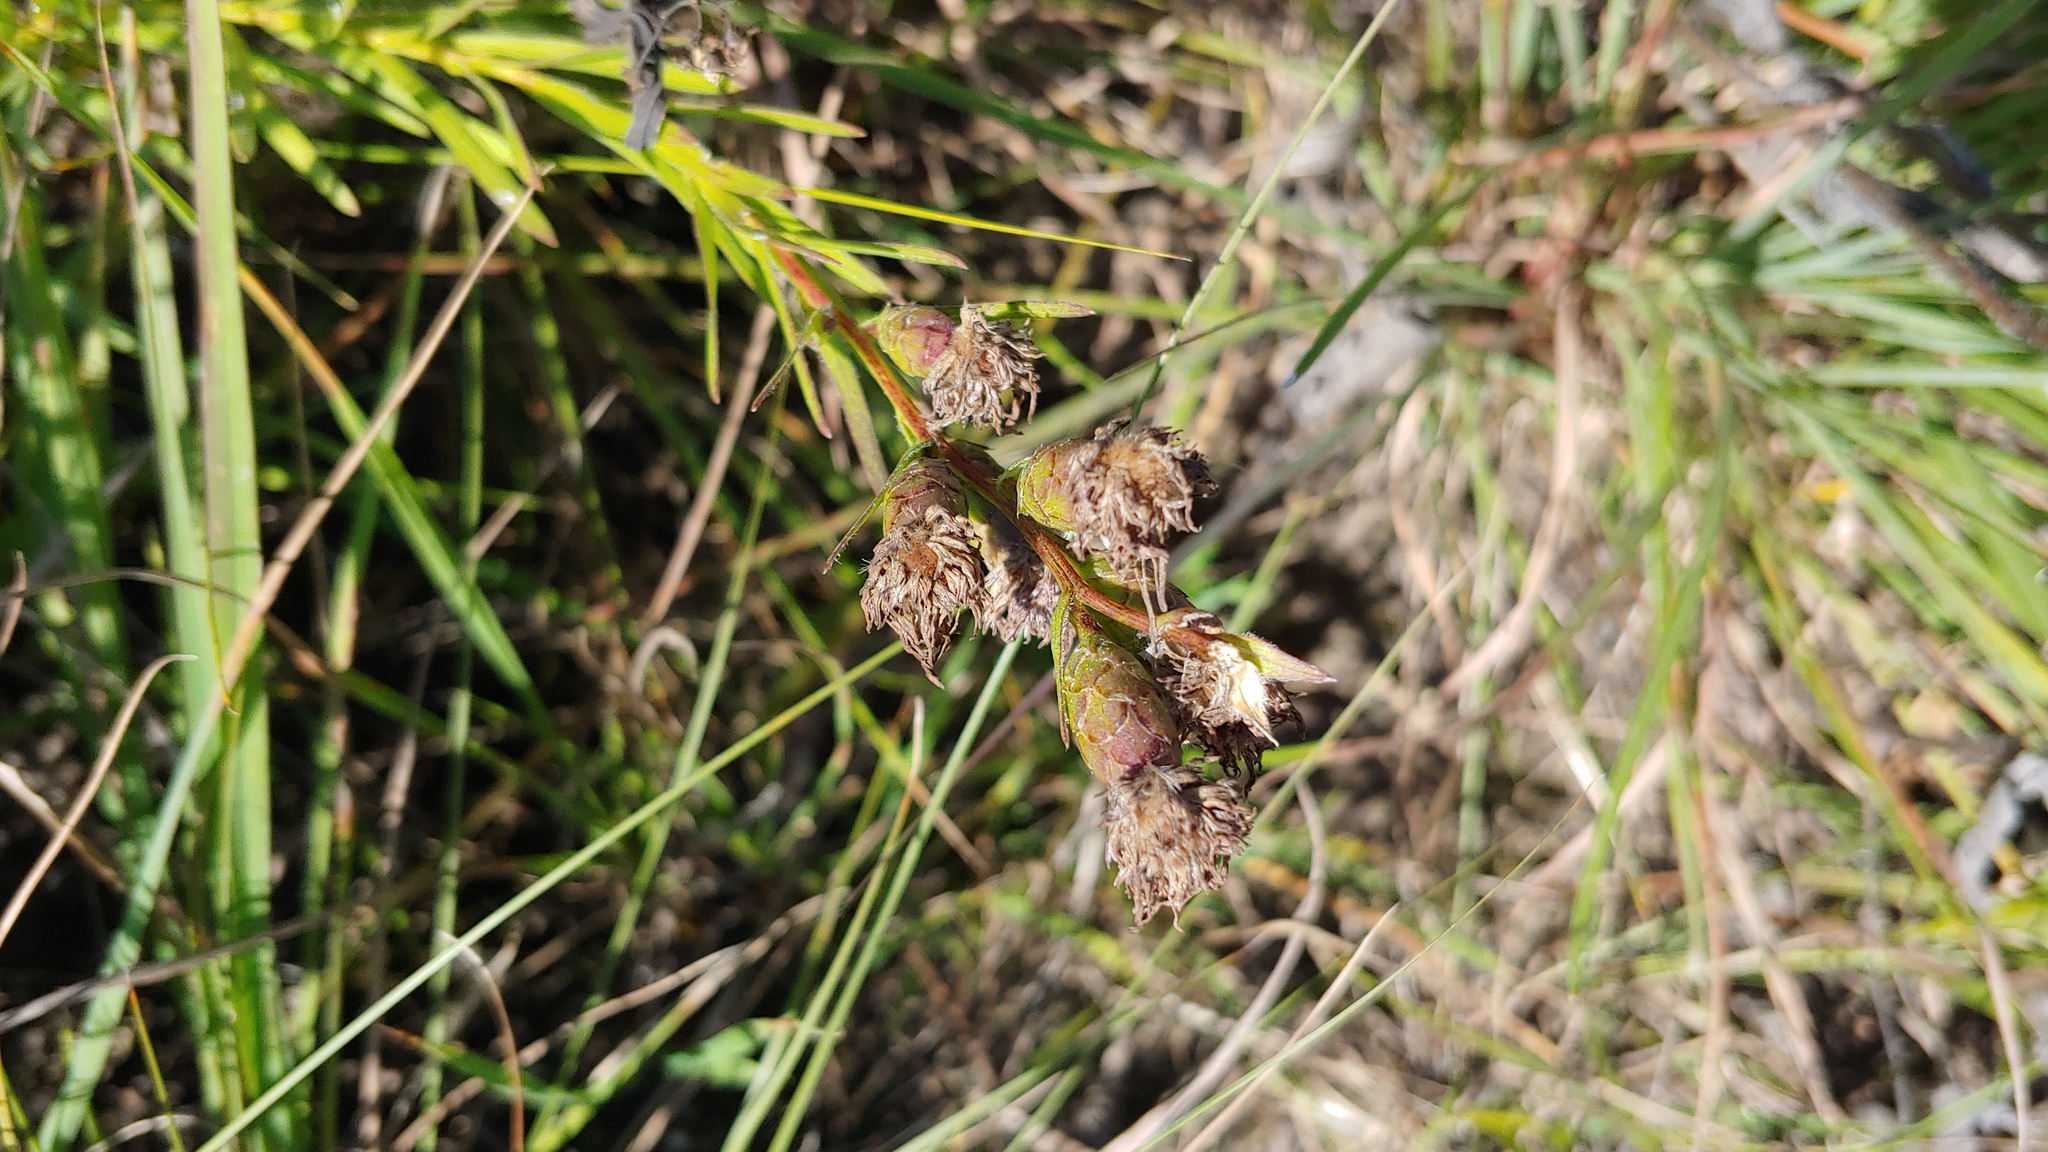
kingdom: Plantae
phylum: Tracheophyta
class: Magnoliopsida
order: Asterales
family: Asteraceae
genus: Liatris
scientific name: Liatris cylindracea
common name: Few-head blazingstar
